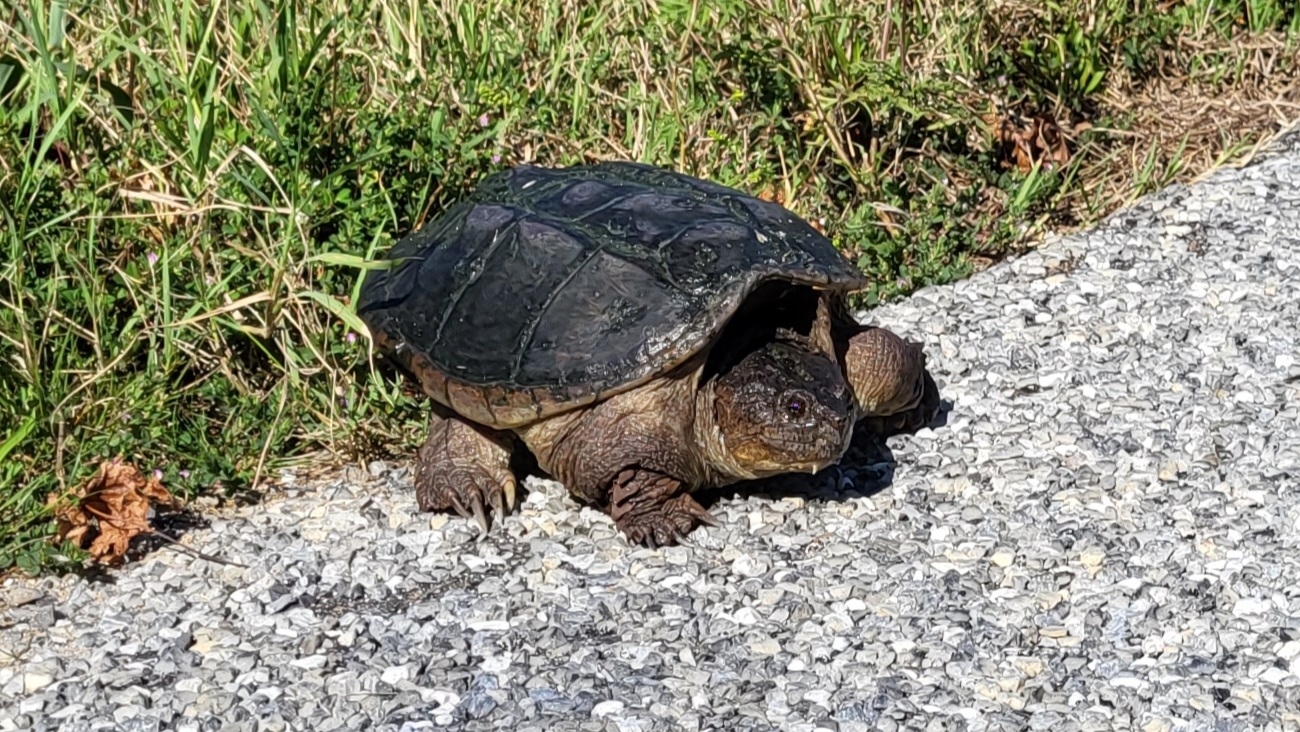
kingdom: Animalia
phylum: Chordata
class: Testudines
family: Chelydridae
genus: Chelydra
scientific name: Chelydra serpentina
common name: Common snapping turtle
